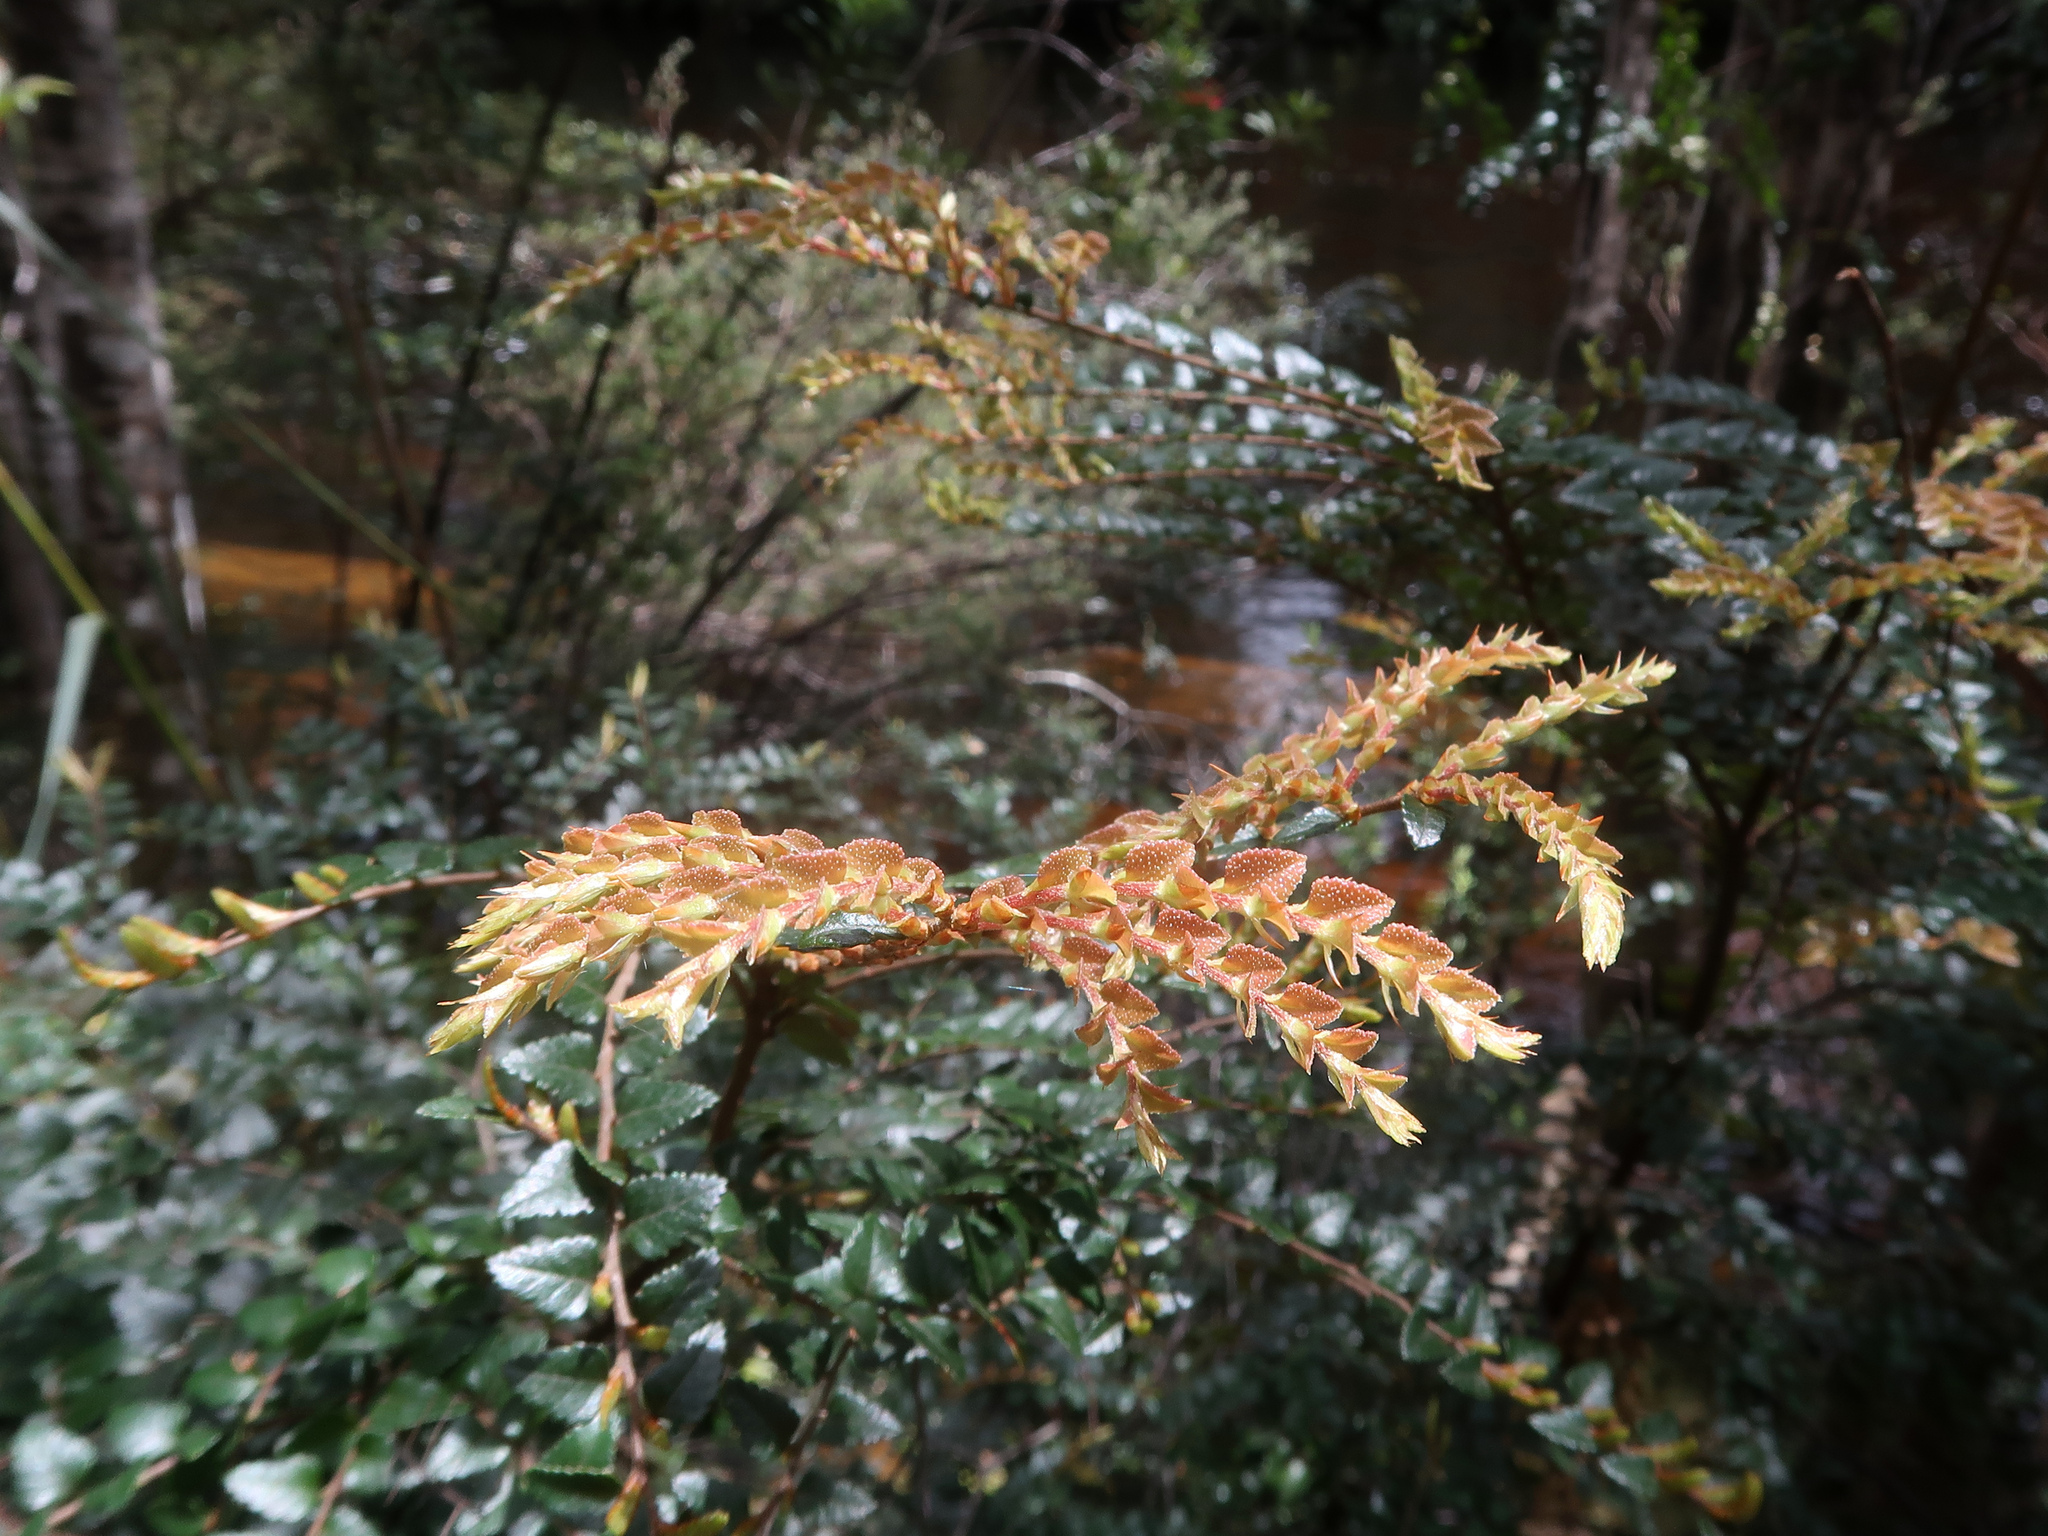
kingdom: Plantae
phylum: Tracheophyta
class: Magnoliopsida
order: Fagales
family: Nothofagaceae
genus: Nothofagus
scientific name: Nothofagus cunninghamii
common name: Myrtle beech
